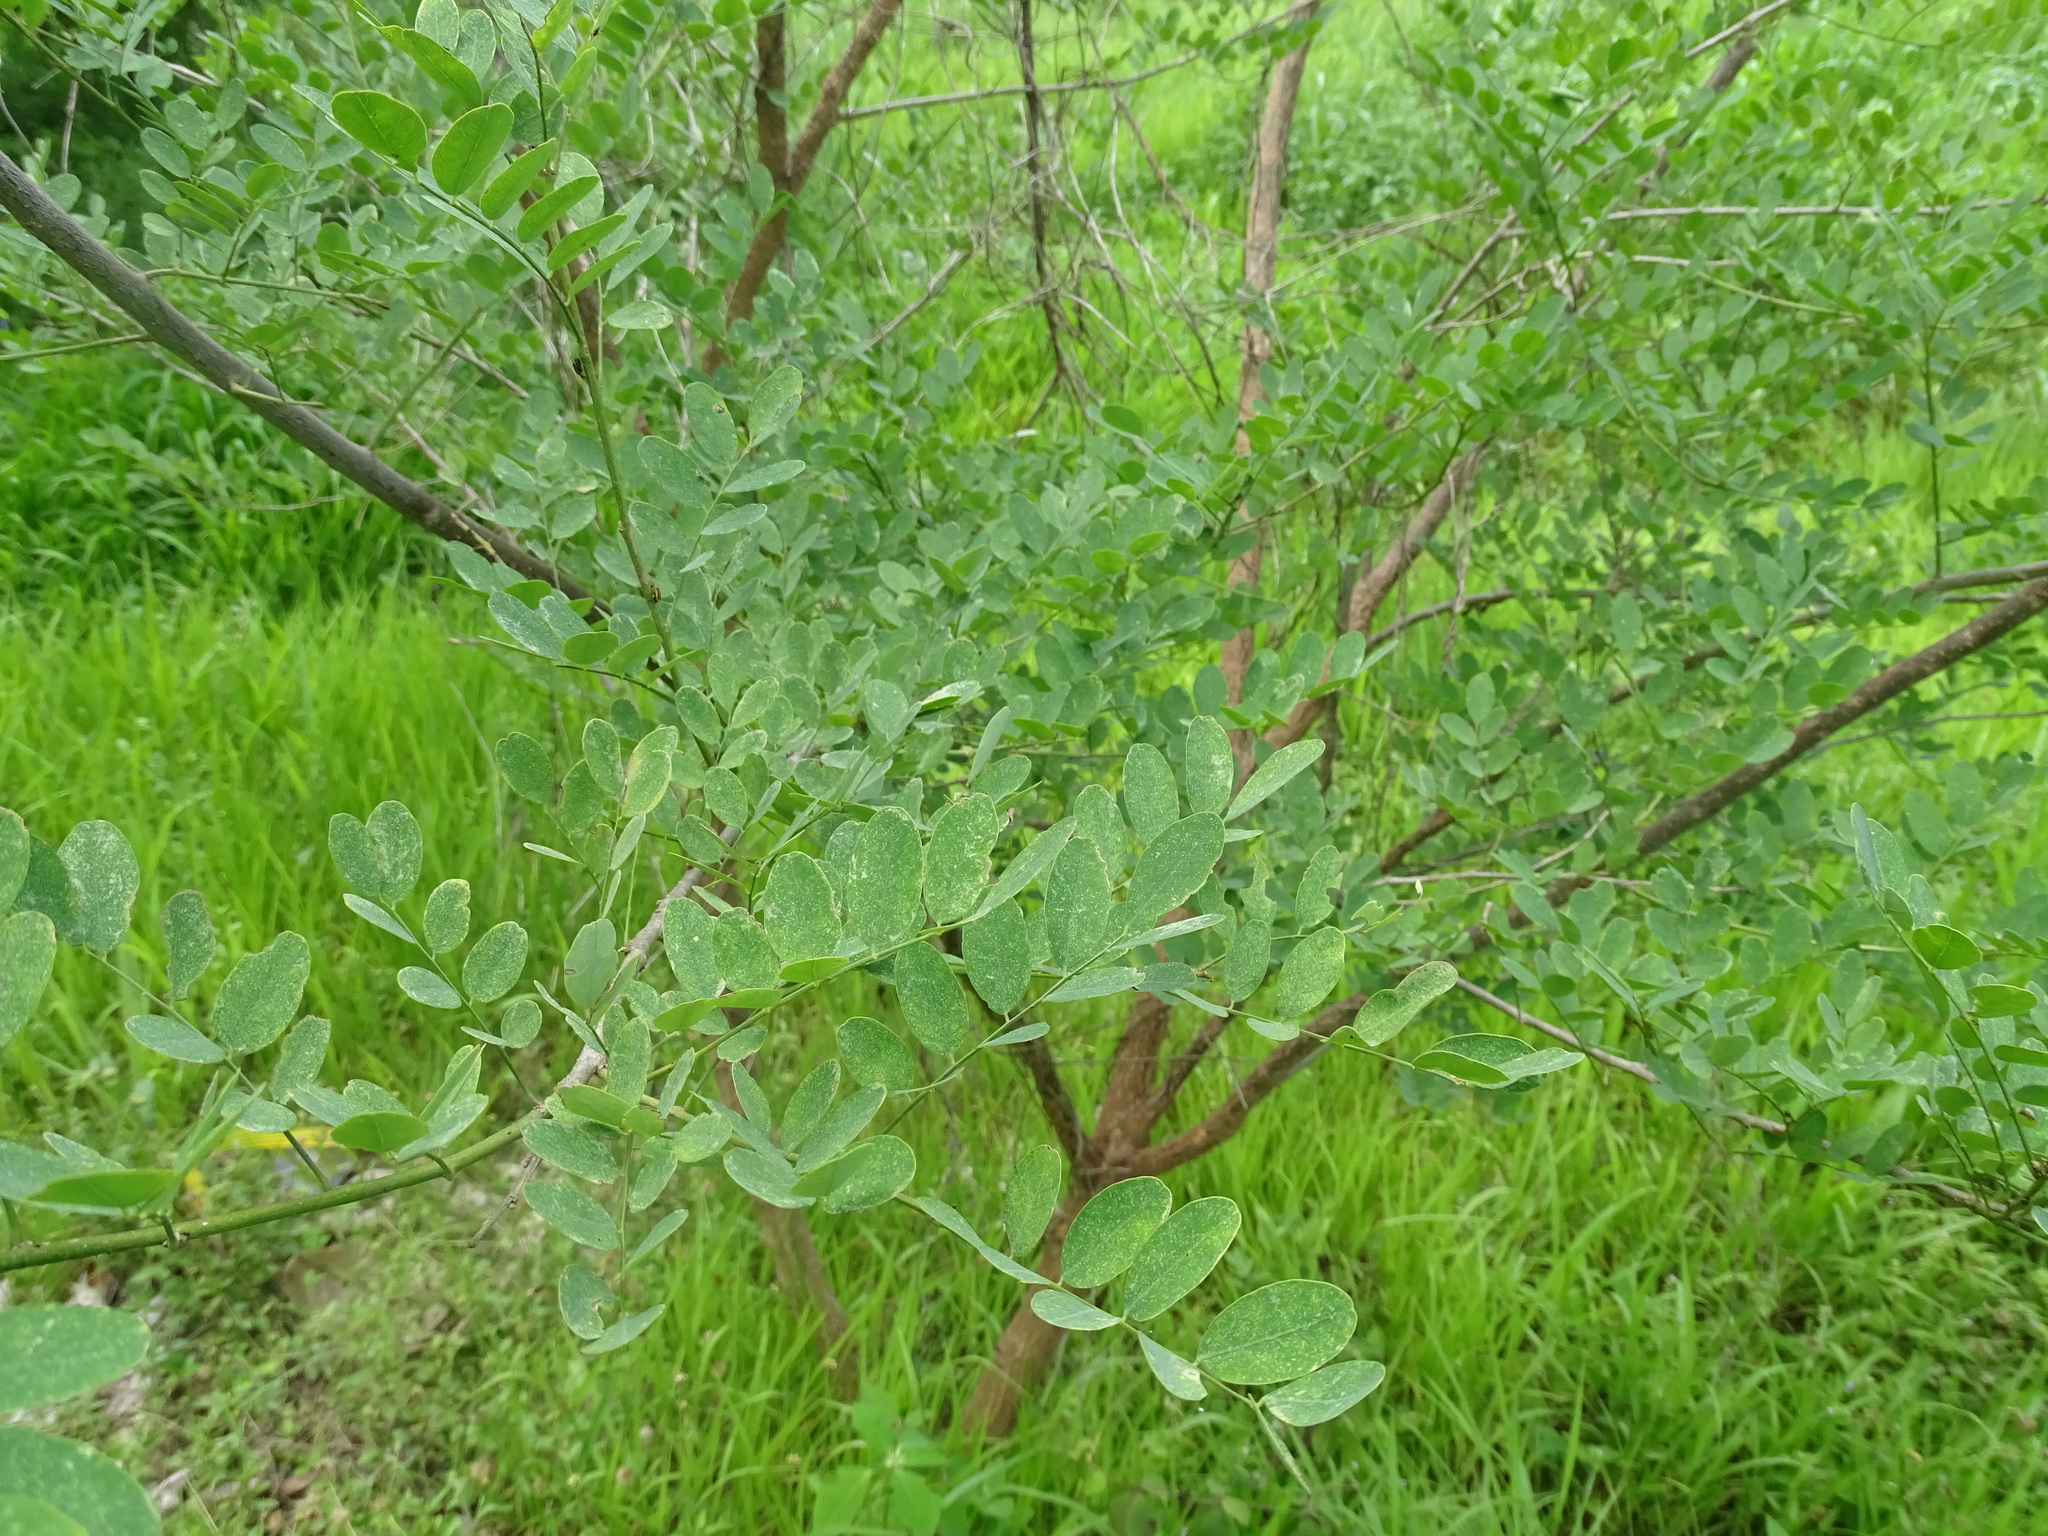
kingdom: Plantae
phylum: Tracheophyta
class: Magnoliopsida
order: Fabales
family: Fabaceae
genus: Diphysa
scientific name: Diphysa americana
